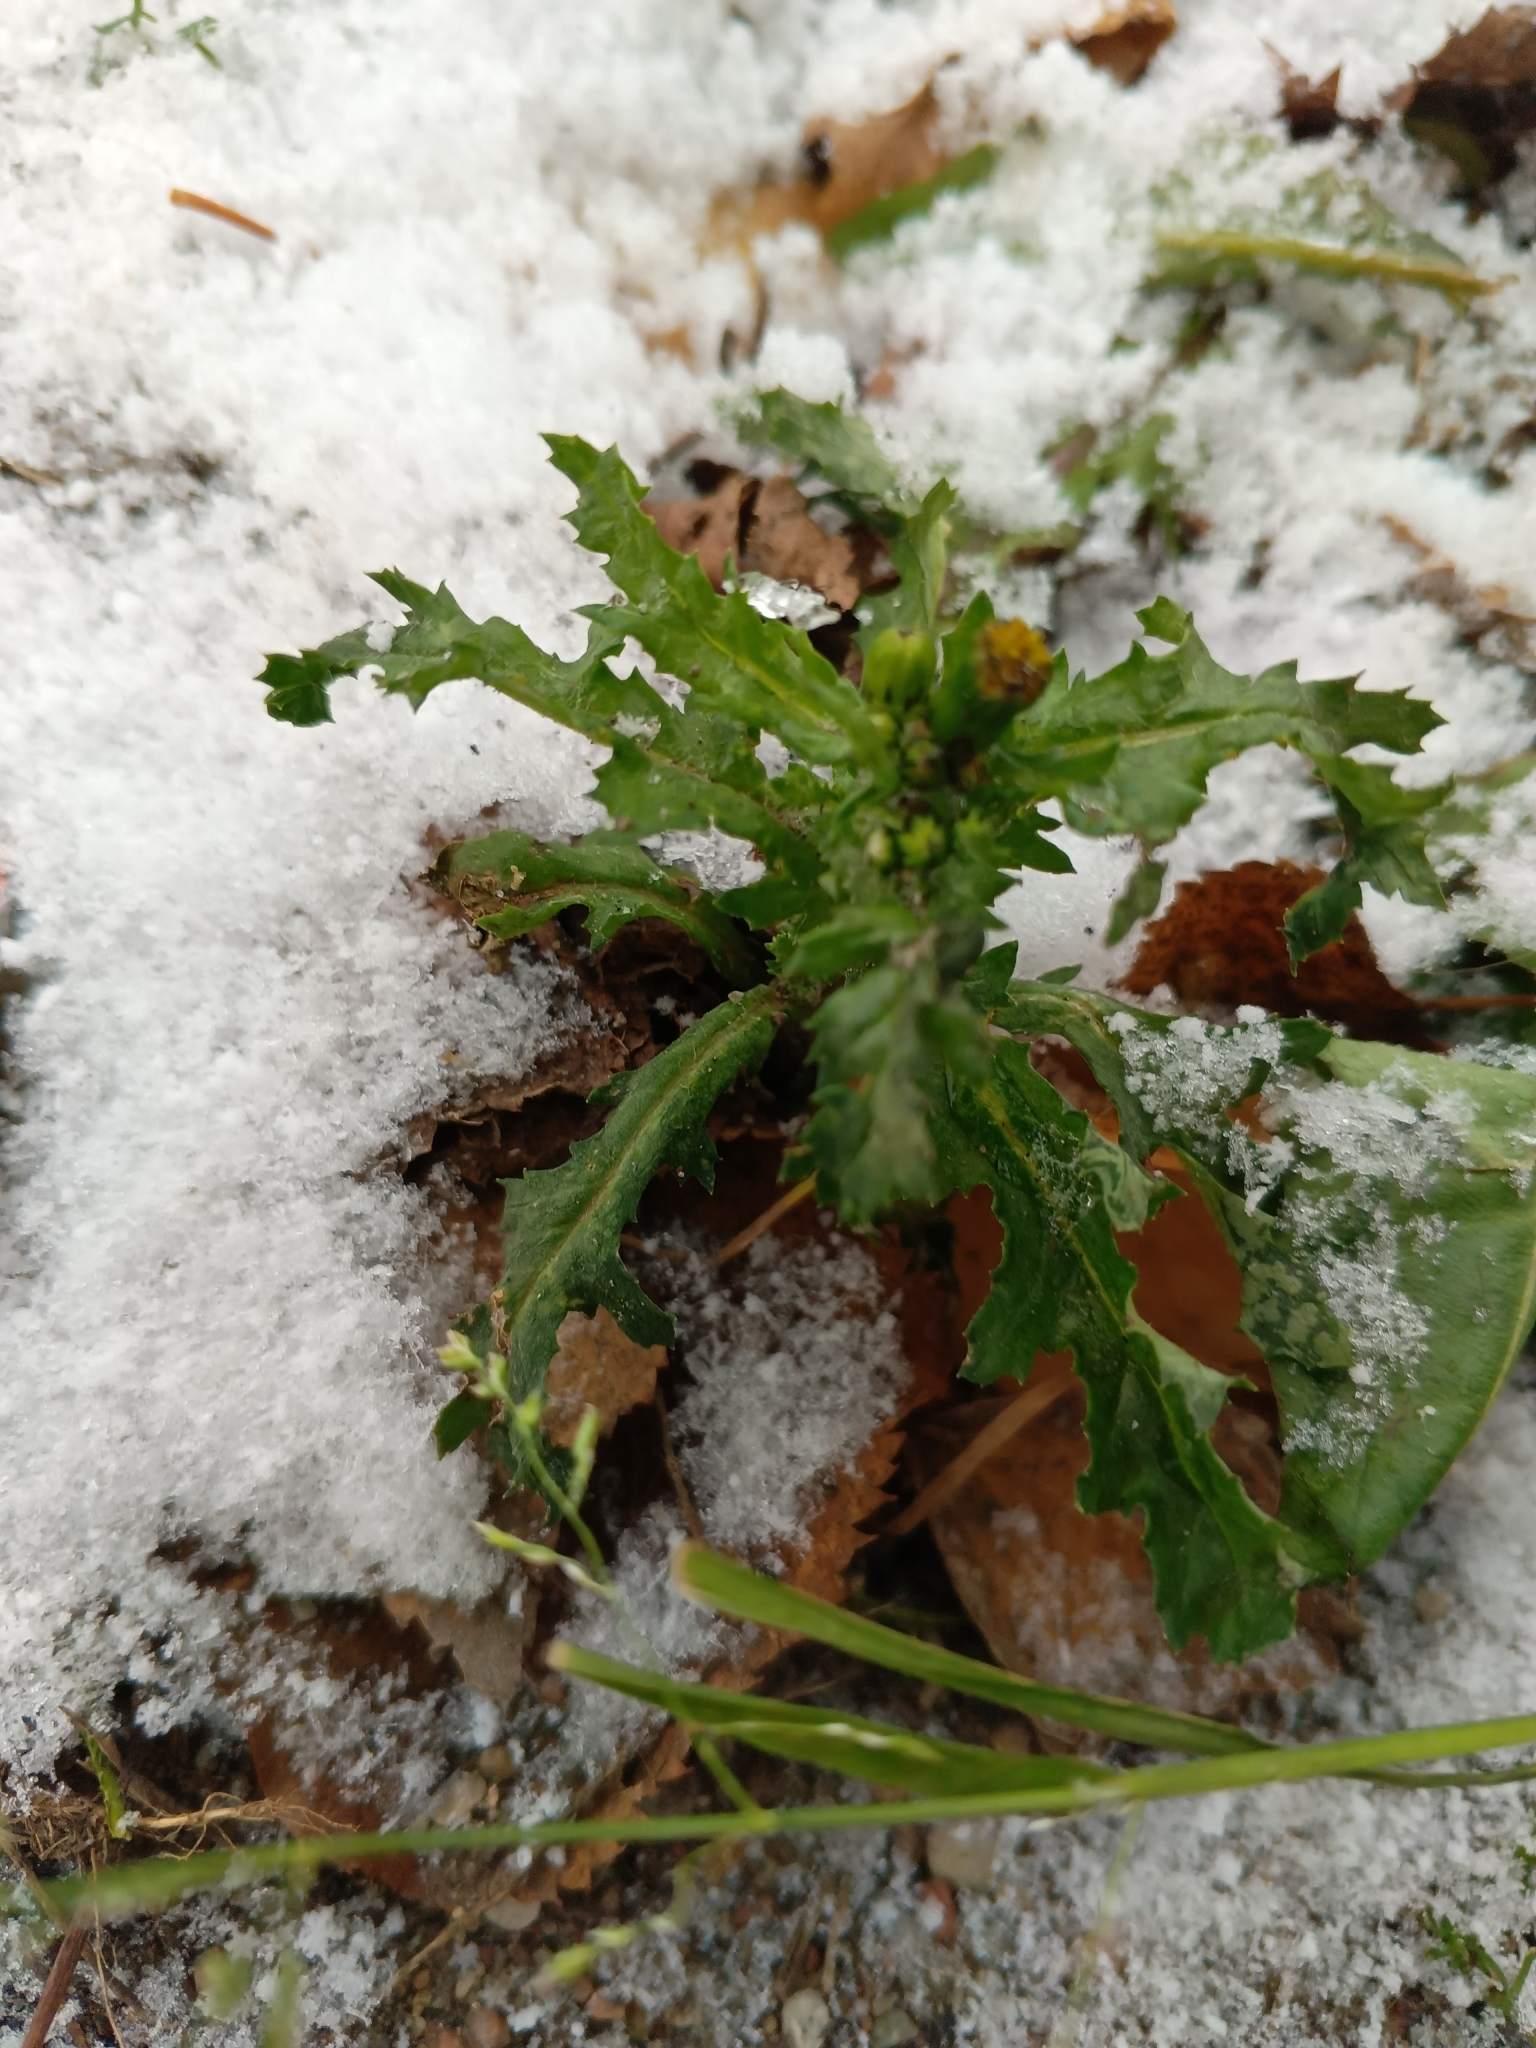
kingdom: Plantae
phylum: Tracheophyta
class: Magnoliopsida
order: Asterales
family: Asteraceae
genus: Senecio
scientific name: Senecio vulgaris
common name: Old-man-in-the-spring
